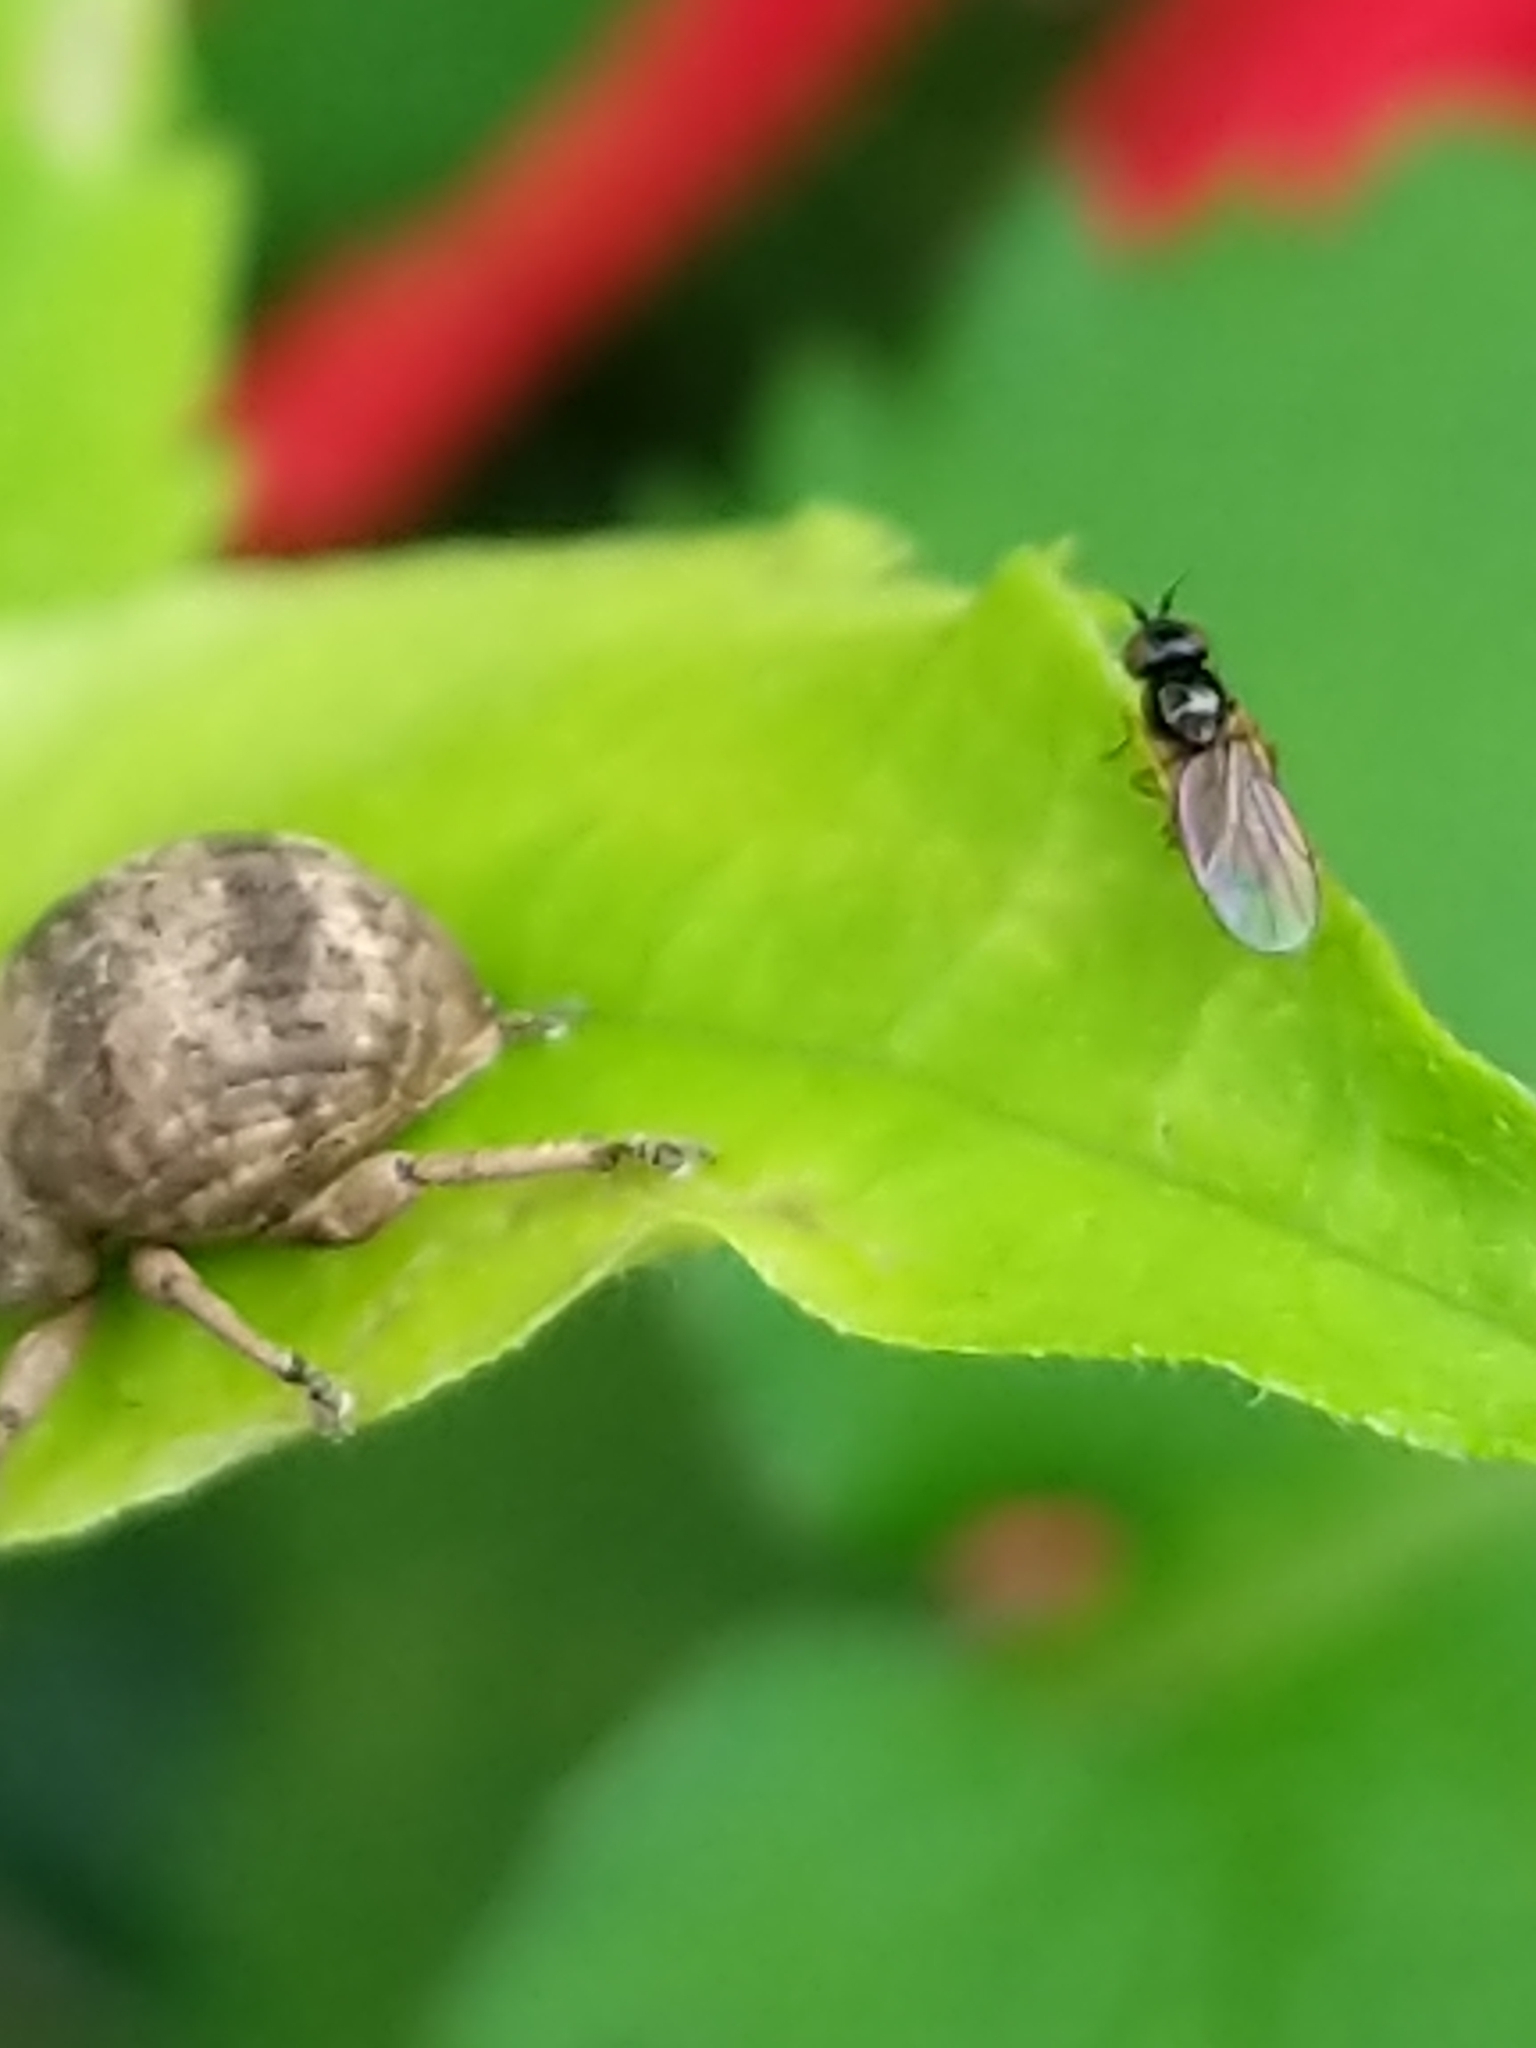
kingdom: Animalia
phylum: Arthropoda
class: Insecta
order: Coleoptera
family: Curculionidae
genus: Pseudocneorhinus
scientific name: Pseudocneorhinus bifasciatus
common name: Two-banded japanese weevil
